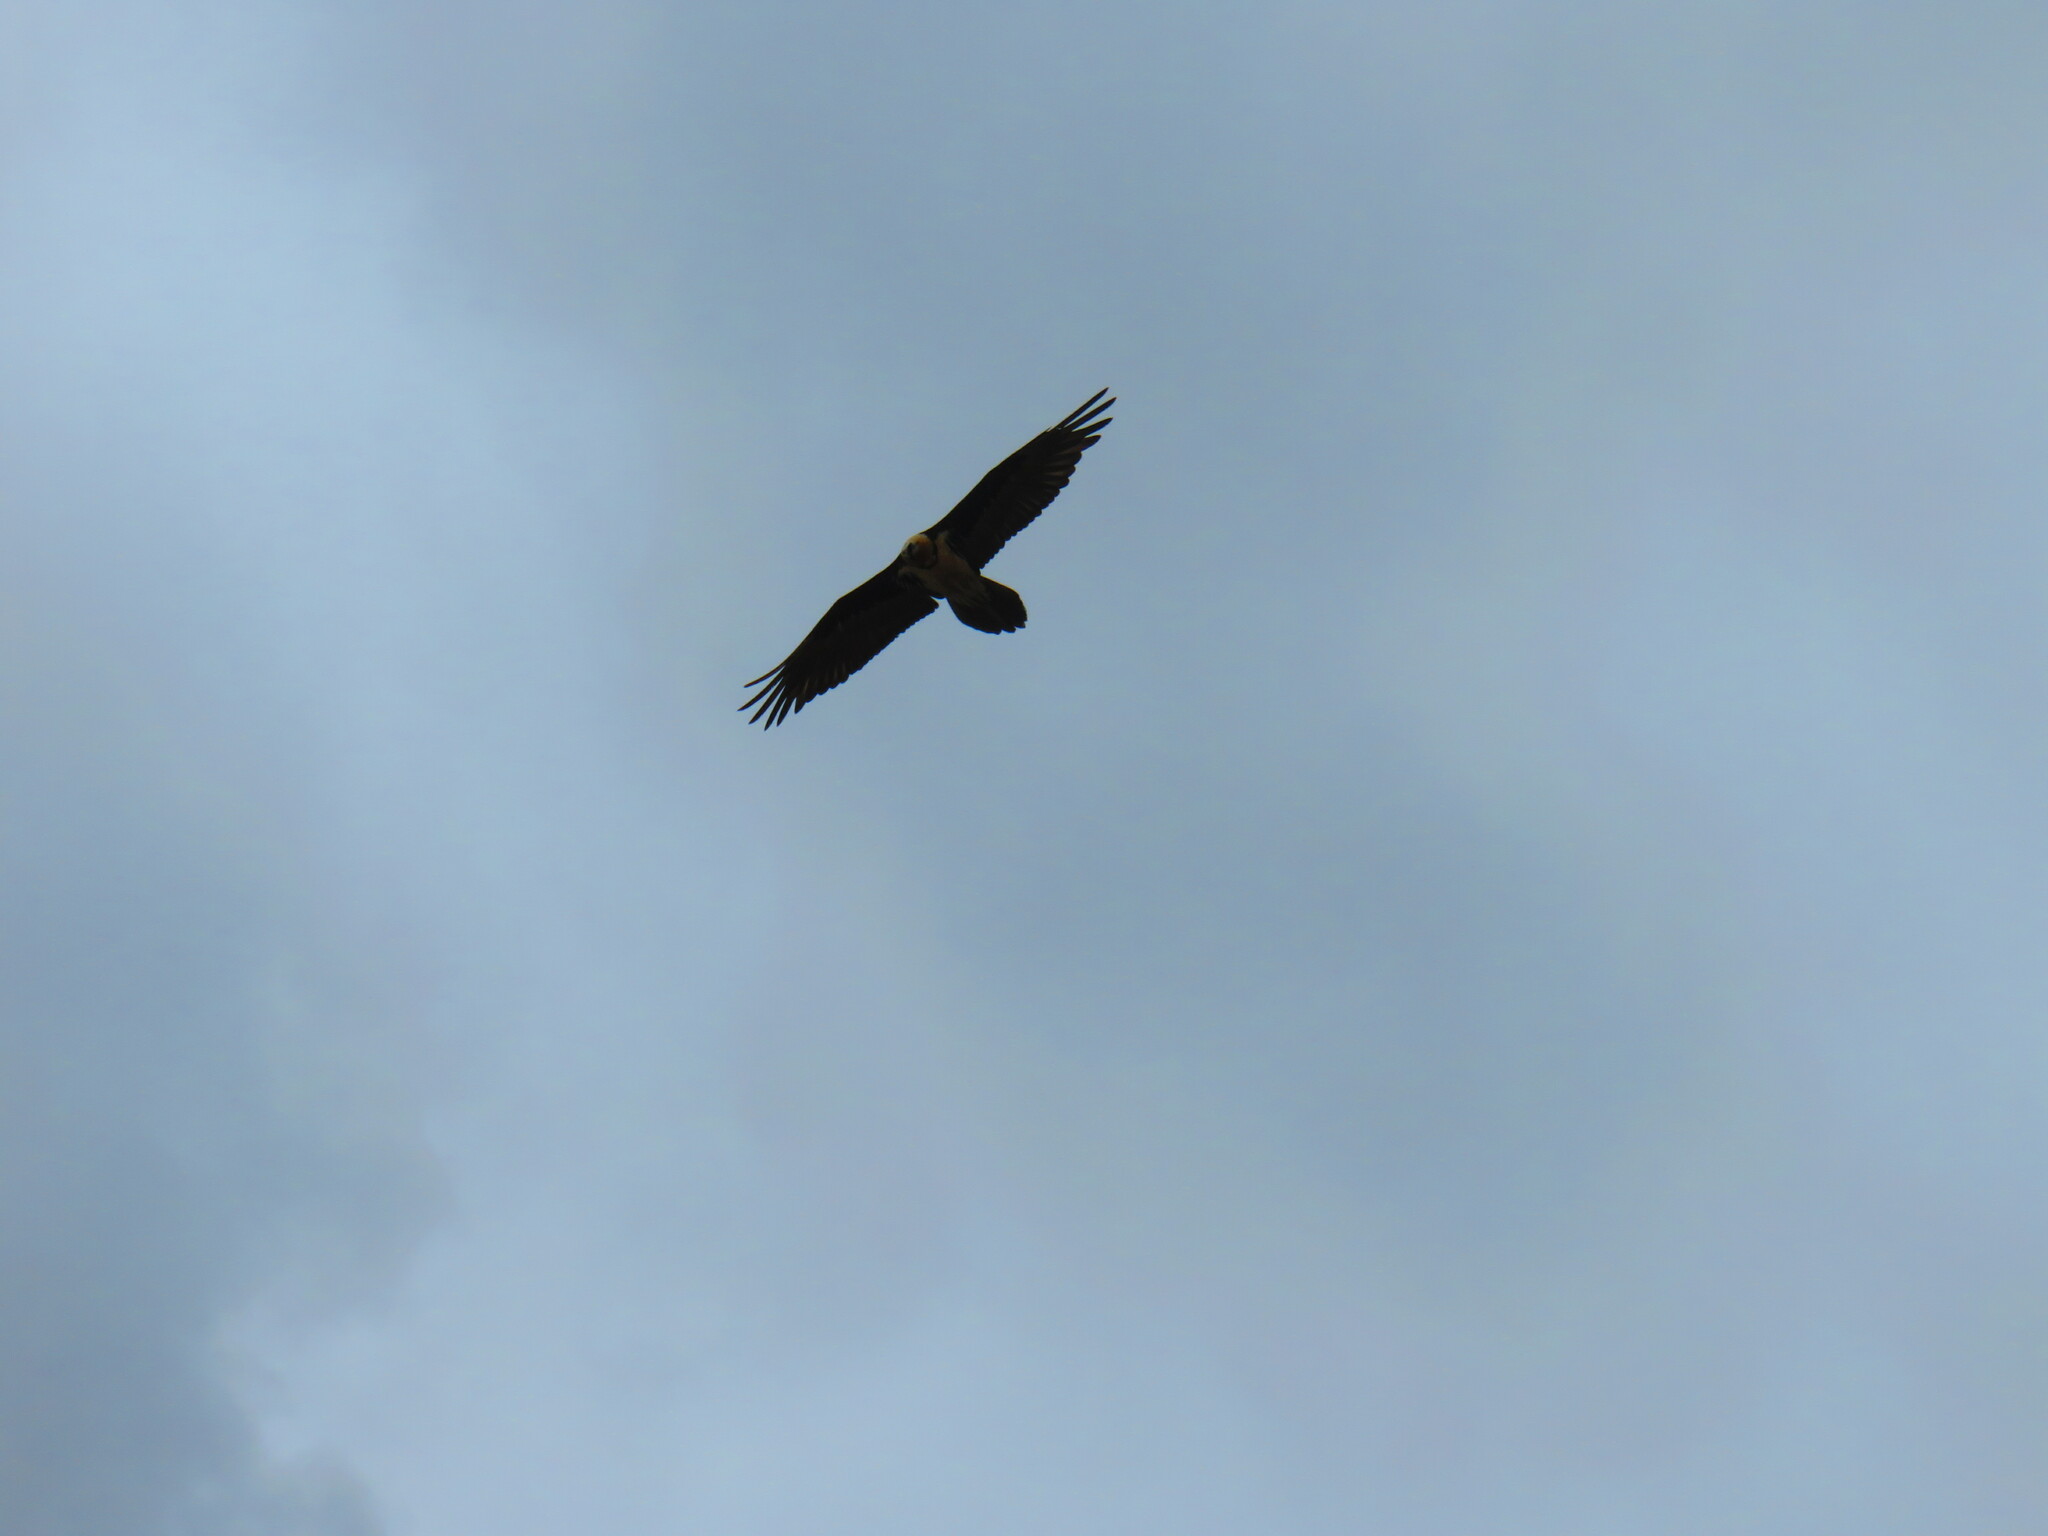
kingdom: Animalia
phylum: Chordata
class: Aves
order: Accipitriformes
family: Accipitridae
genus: Gypaetus
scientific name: Gypaetus barbatus
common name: Bearded vulture
